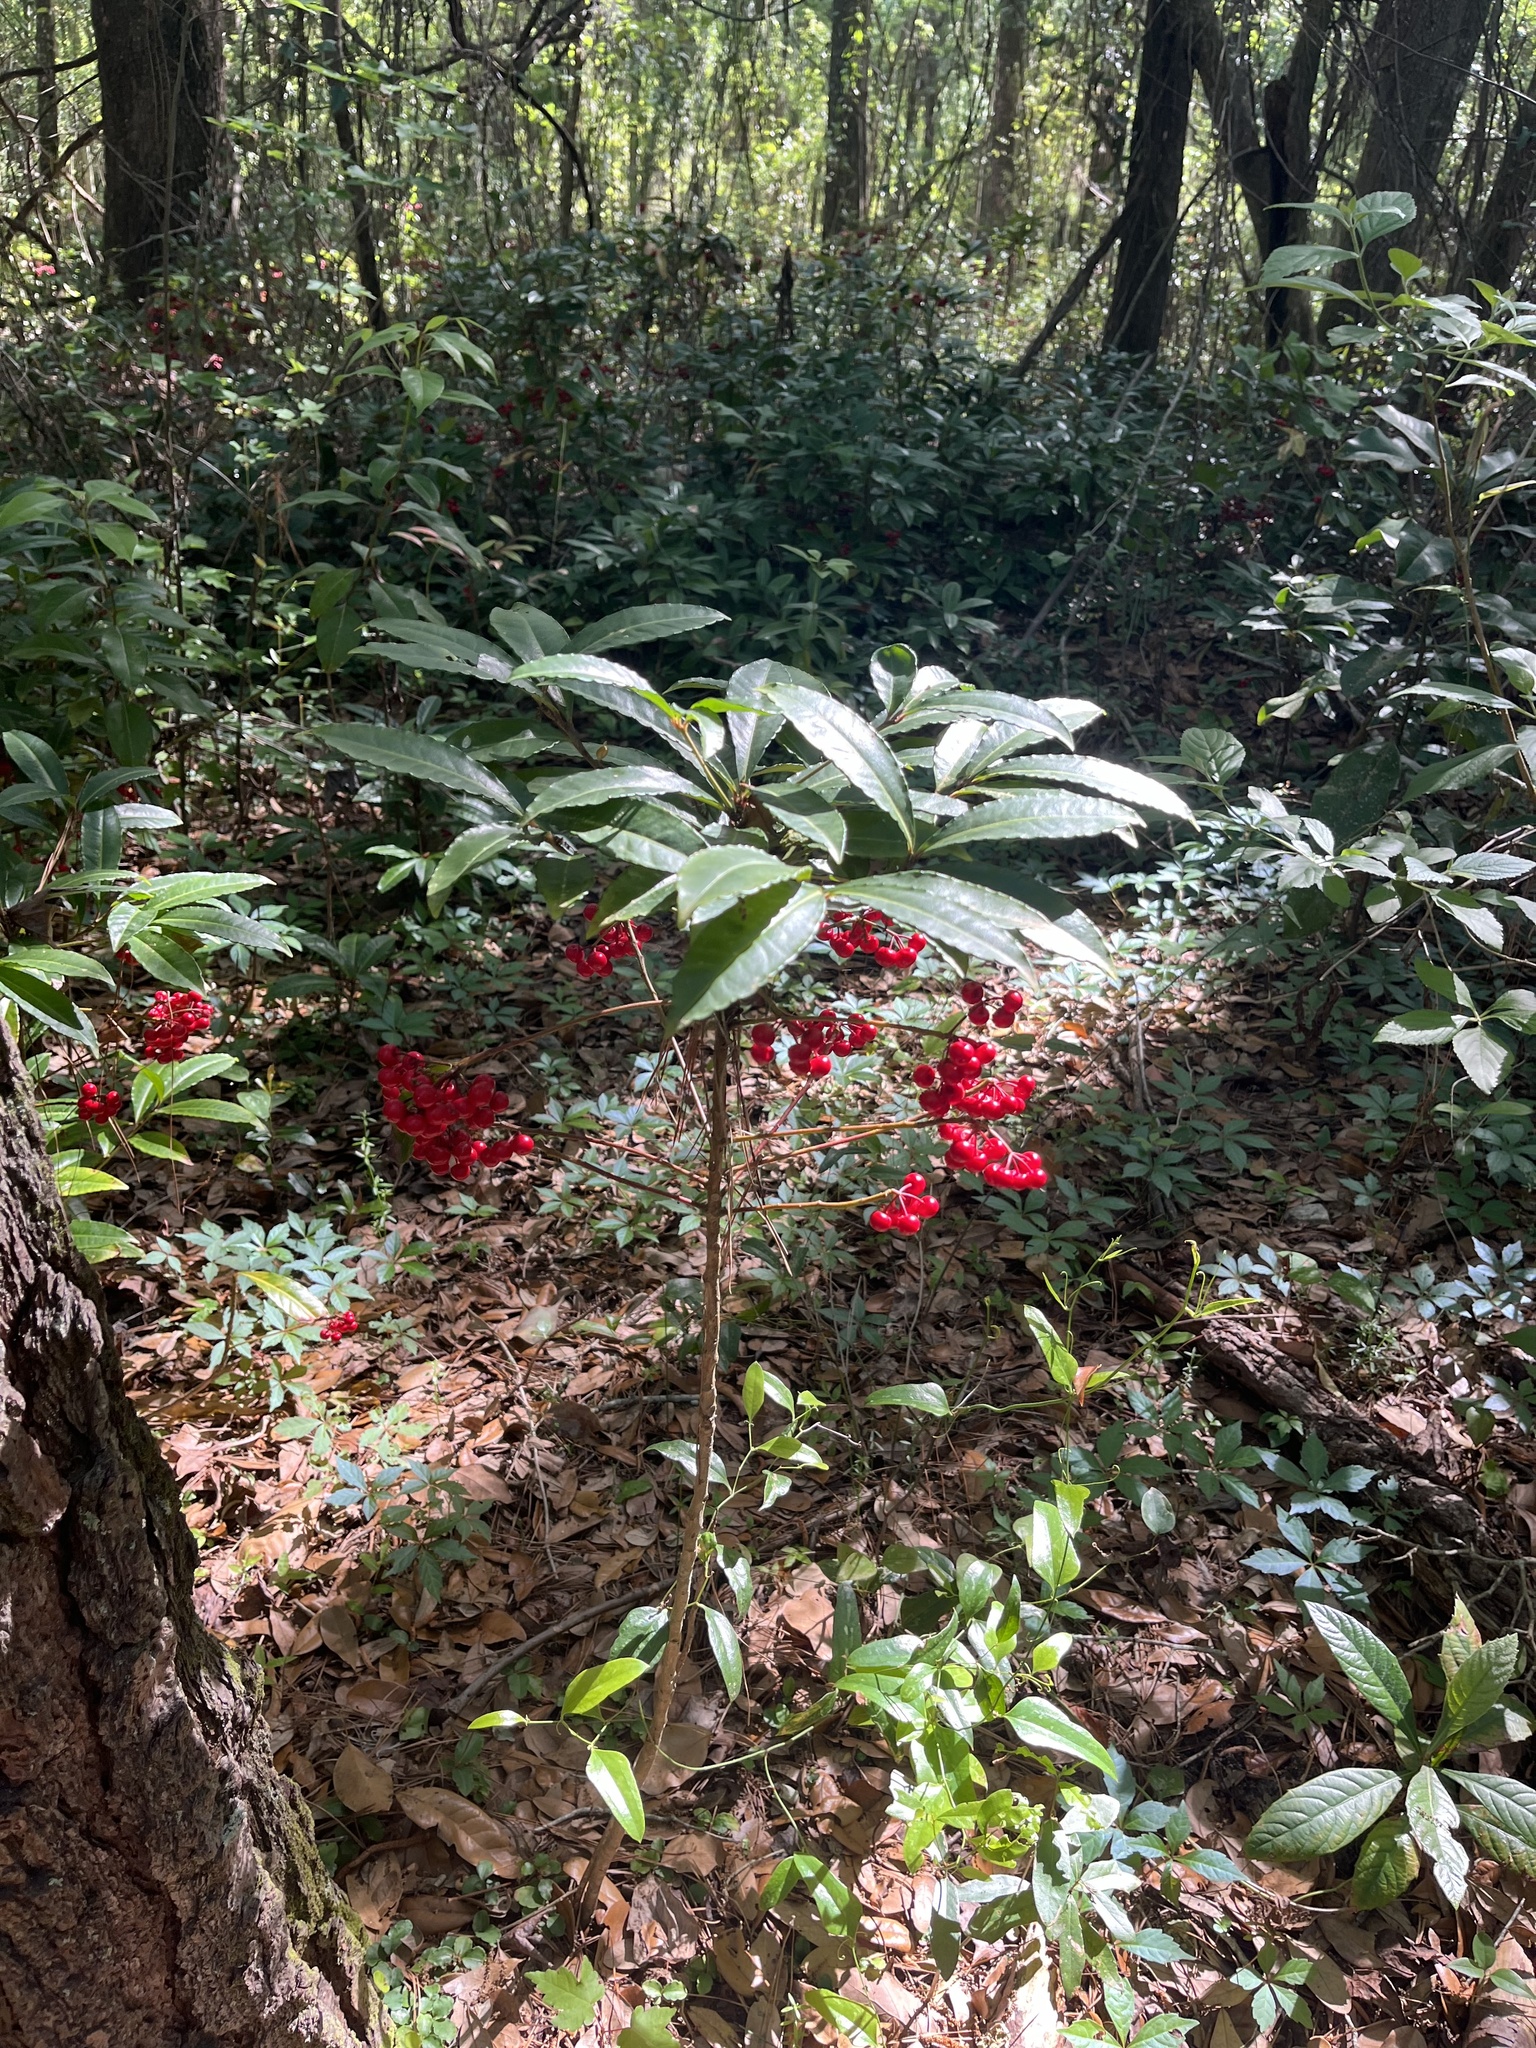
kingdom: Plantae
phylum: Tracheophyta
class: Magnoliopsida
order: Ericales
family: Primulaceae
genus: Ardisia
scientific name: Ardisia crenata
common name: Hen's eyes
